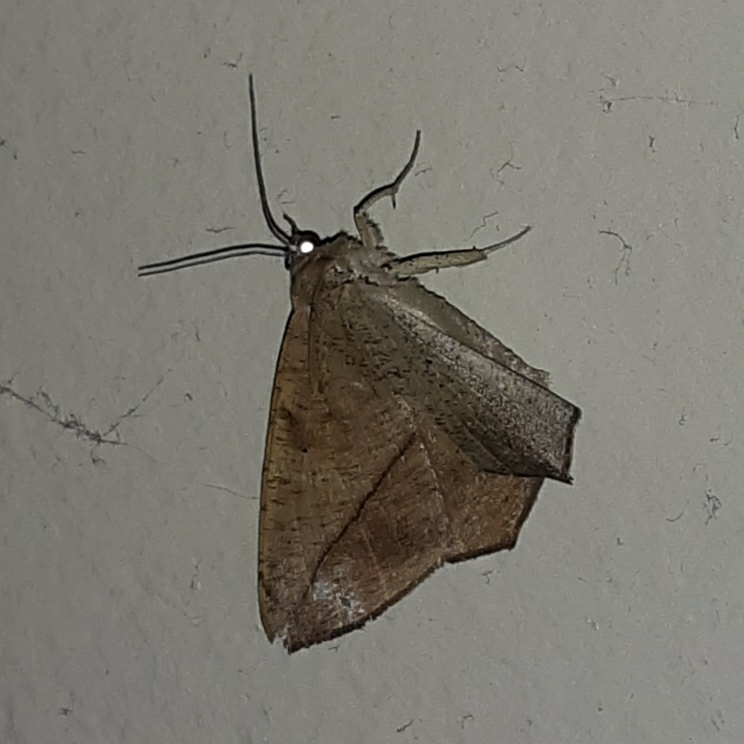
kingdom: Animalia
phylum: Arthropoda
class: Insecta
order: Lepidoptera
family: Geometridae
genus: Prochoerodes
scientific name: Prochoerodes lineola
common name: Large maple spanworm
